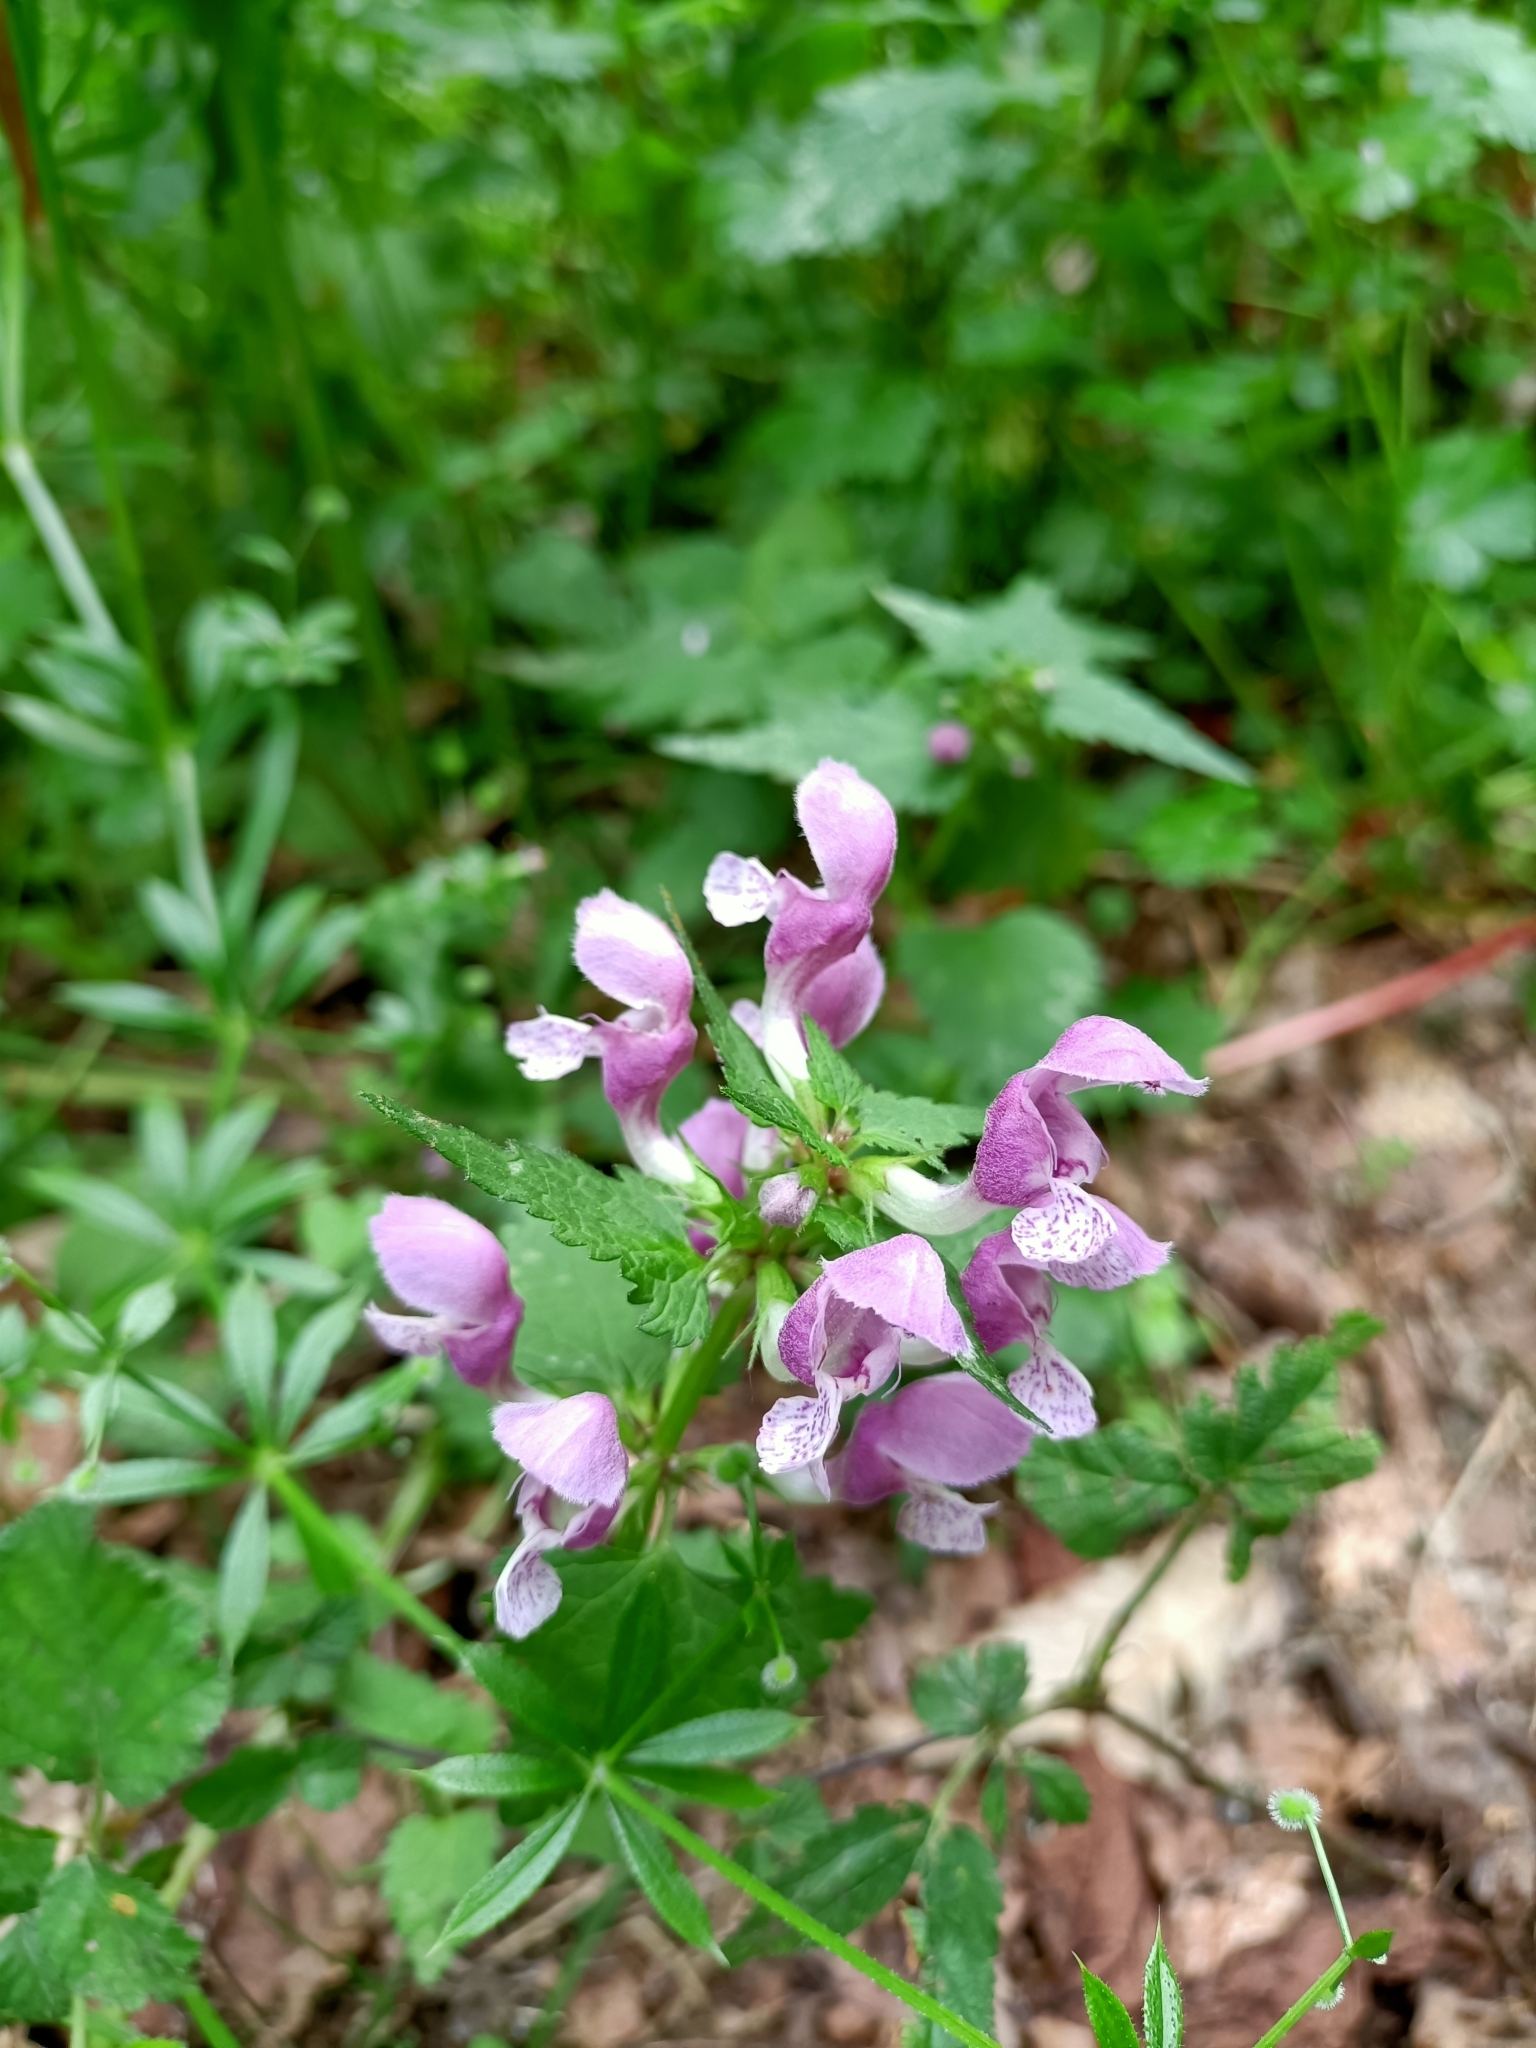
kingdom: Plantae
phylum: Tracheophyta
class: Magnoliopsida
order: Lamiales
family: Lamiaceae
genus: Lamium
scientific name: Lamium maculatum
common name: Spotted dead-nettle
